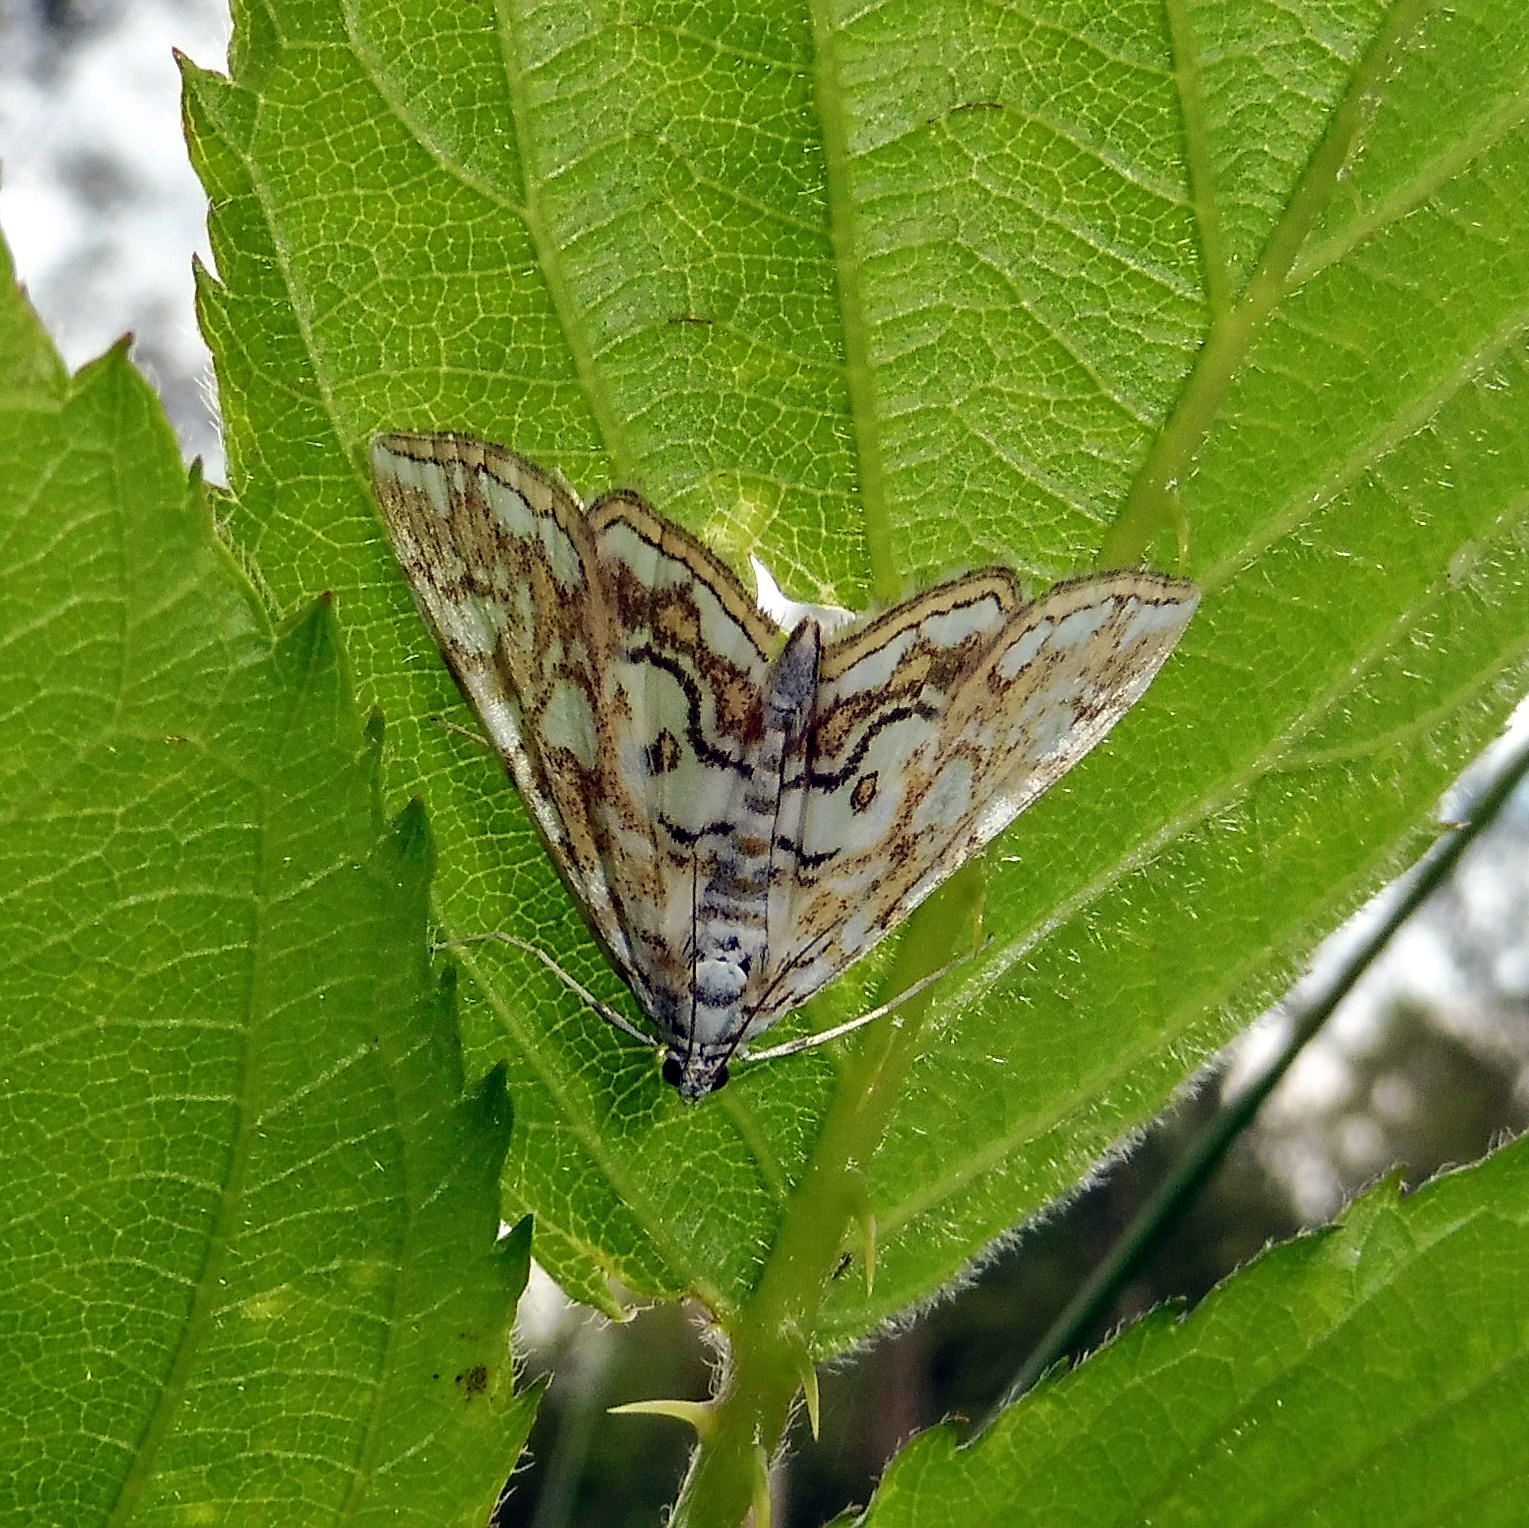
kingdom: Animalia
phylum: Arthropoda
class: Insecta
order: Lepidoptera
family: Crambidae
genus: Elophila
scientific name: Elophila nymphaeata
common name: Brown china-mark
